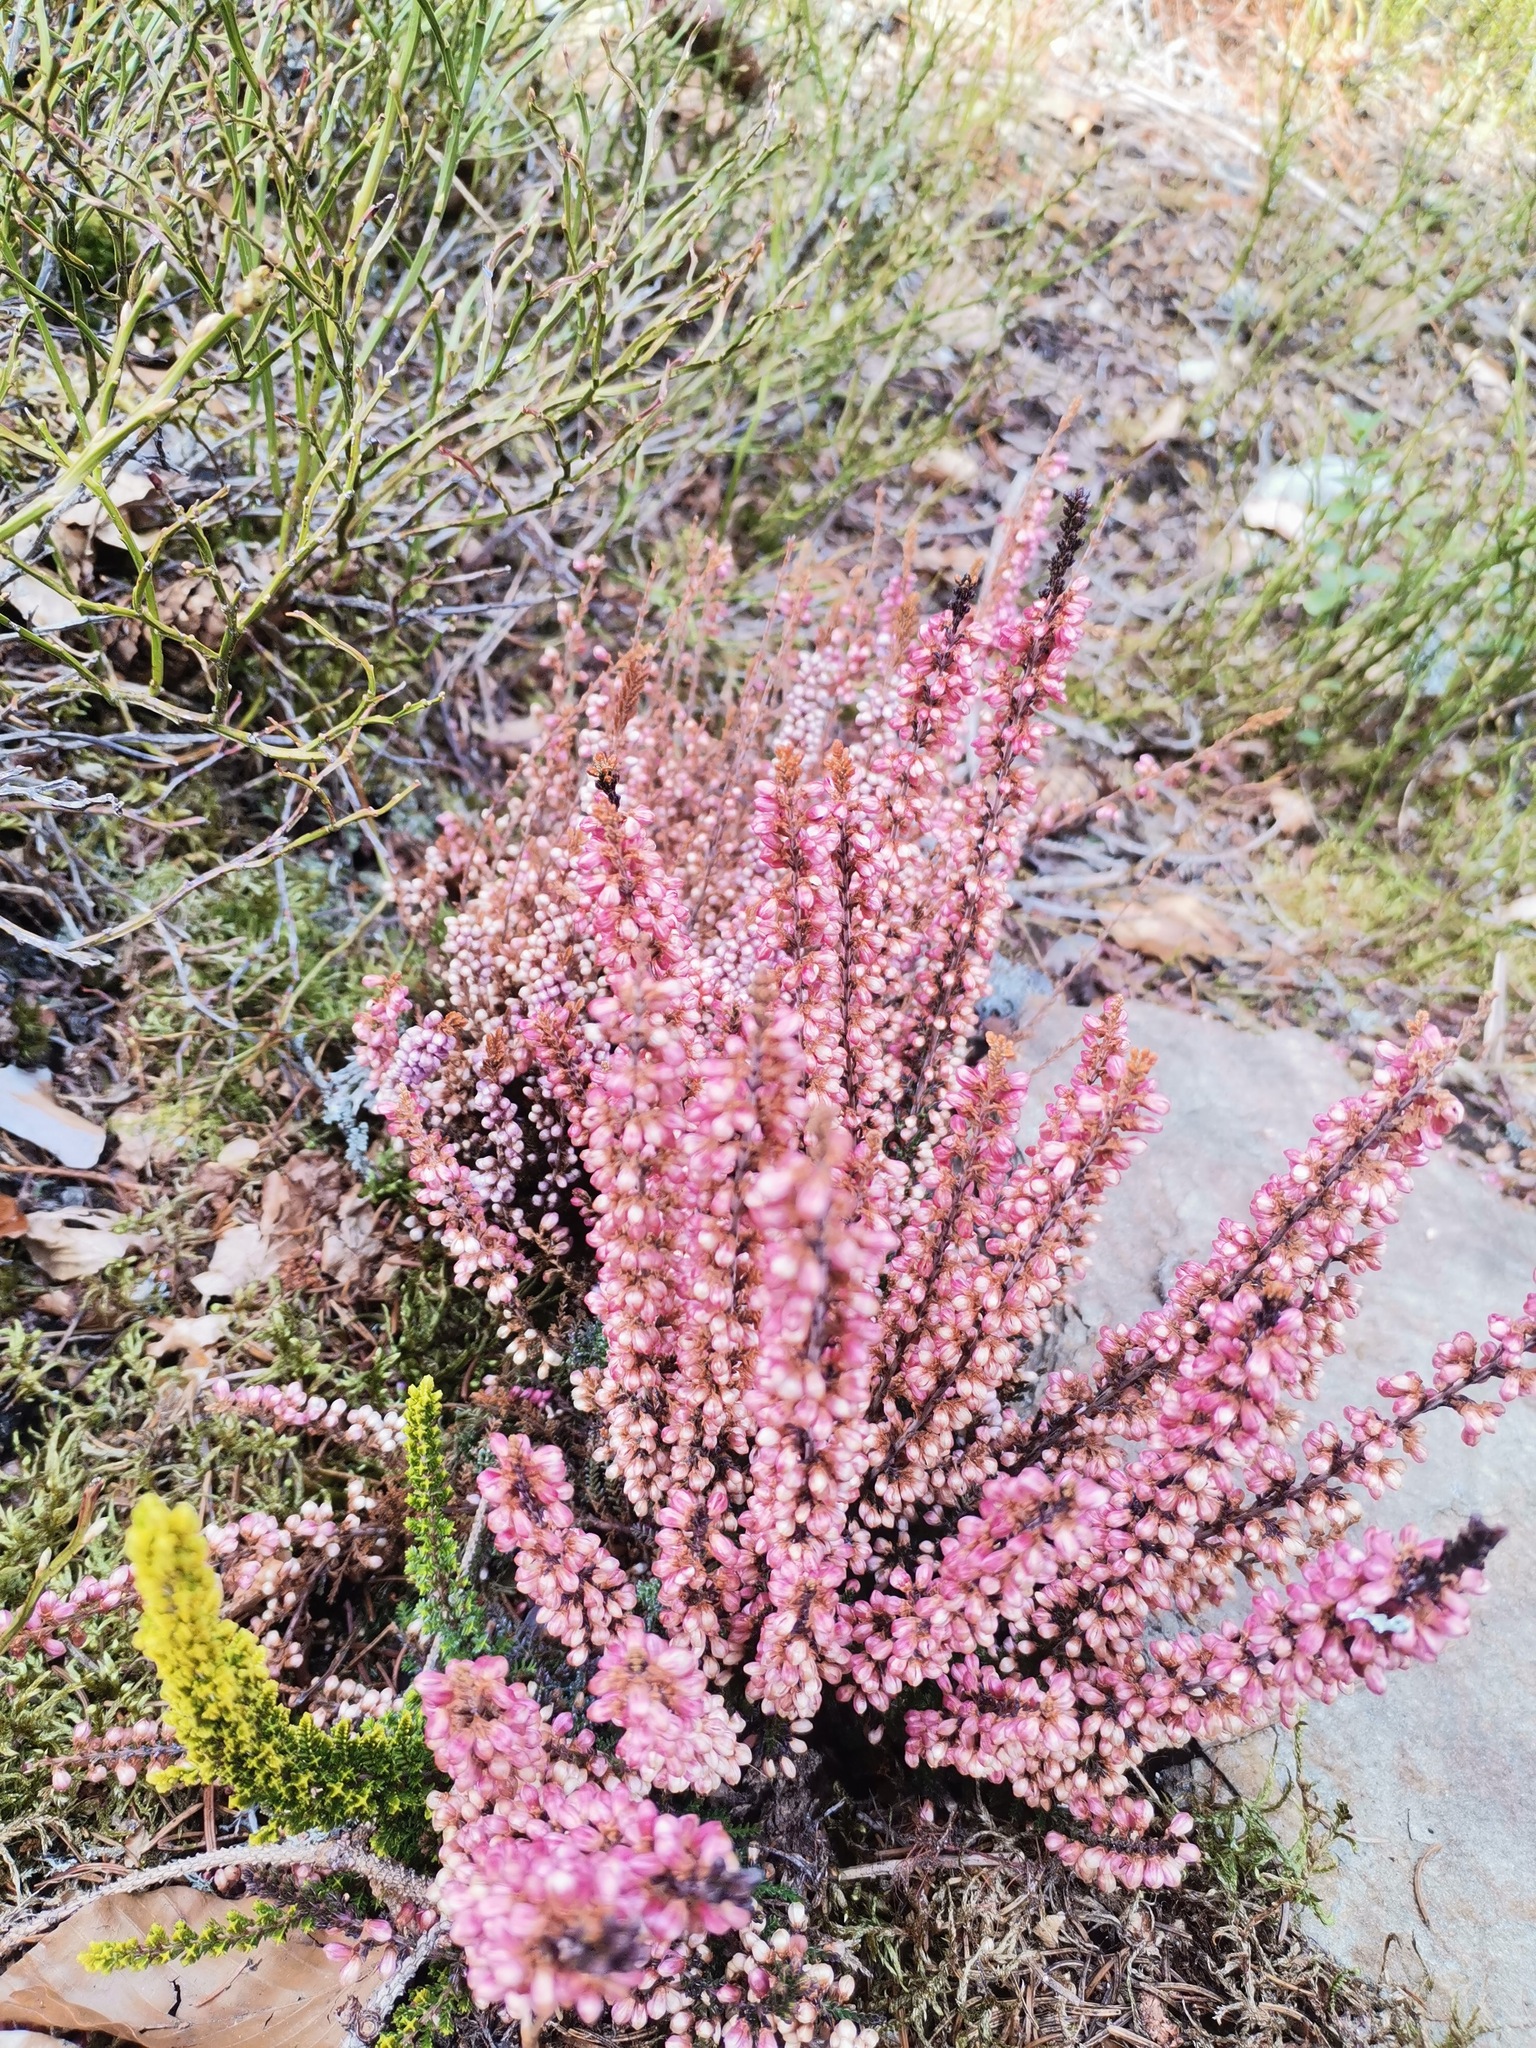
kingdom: Plantae
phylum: Tracheophyta
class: Magnoliopsida
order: Ericales
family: Ericaceae
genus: Calluna
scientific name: Calluna vulgaris
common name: Heather
